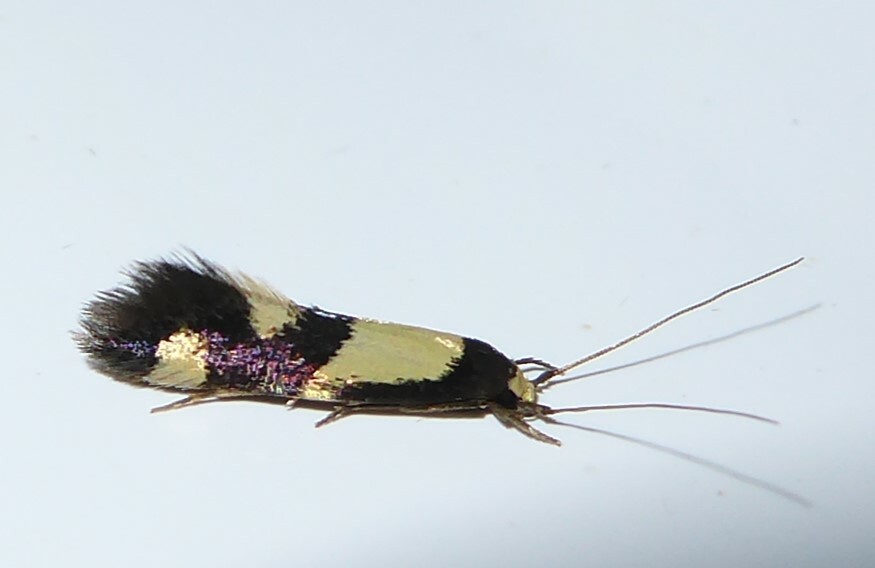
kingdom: Animalia
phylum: Arthropoda
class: Insecta
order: Lepidoptera
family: Tineidae
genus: Opogona
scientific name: Opogona comptella
